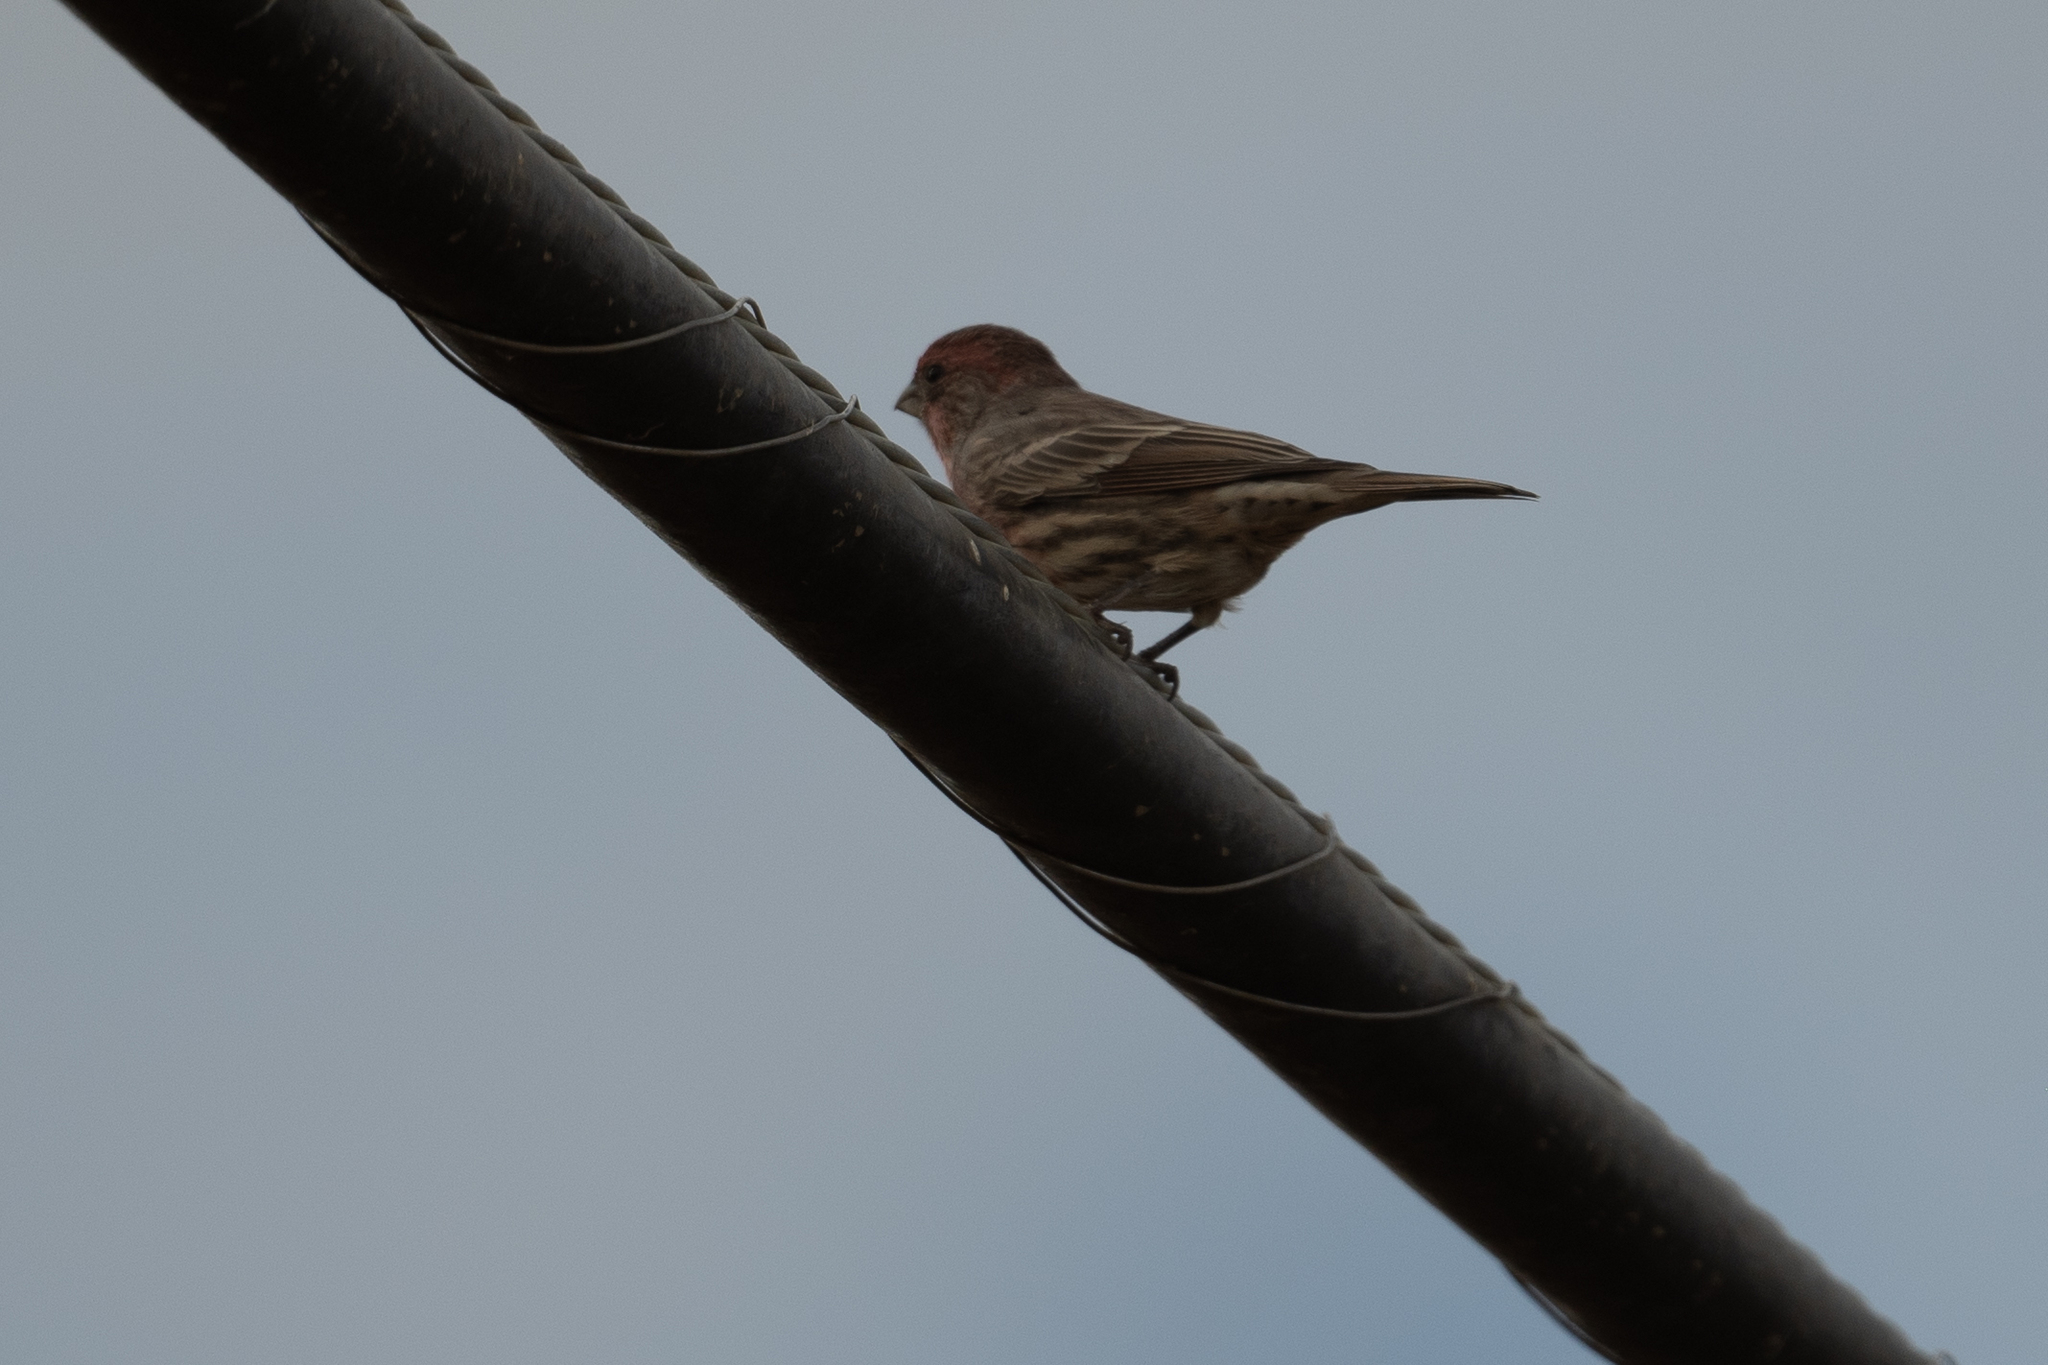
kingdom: Animalia
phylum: Chordata
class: Aves
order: Passeriformes
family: Fringillidae
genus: Haemorhous
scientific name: Haemorhous mexicanus
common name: House finch
